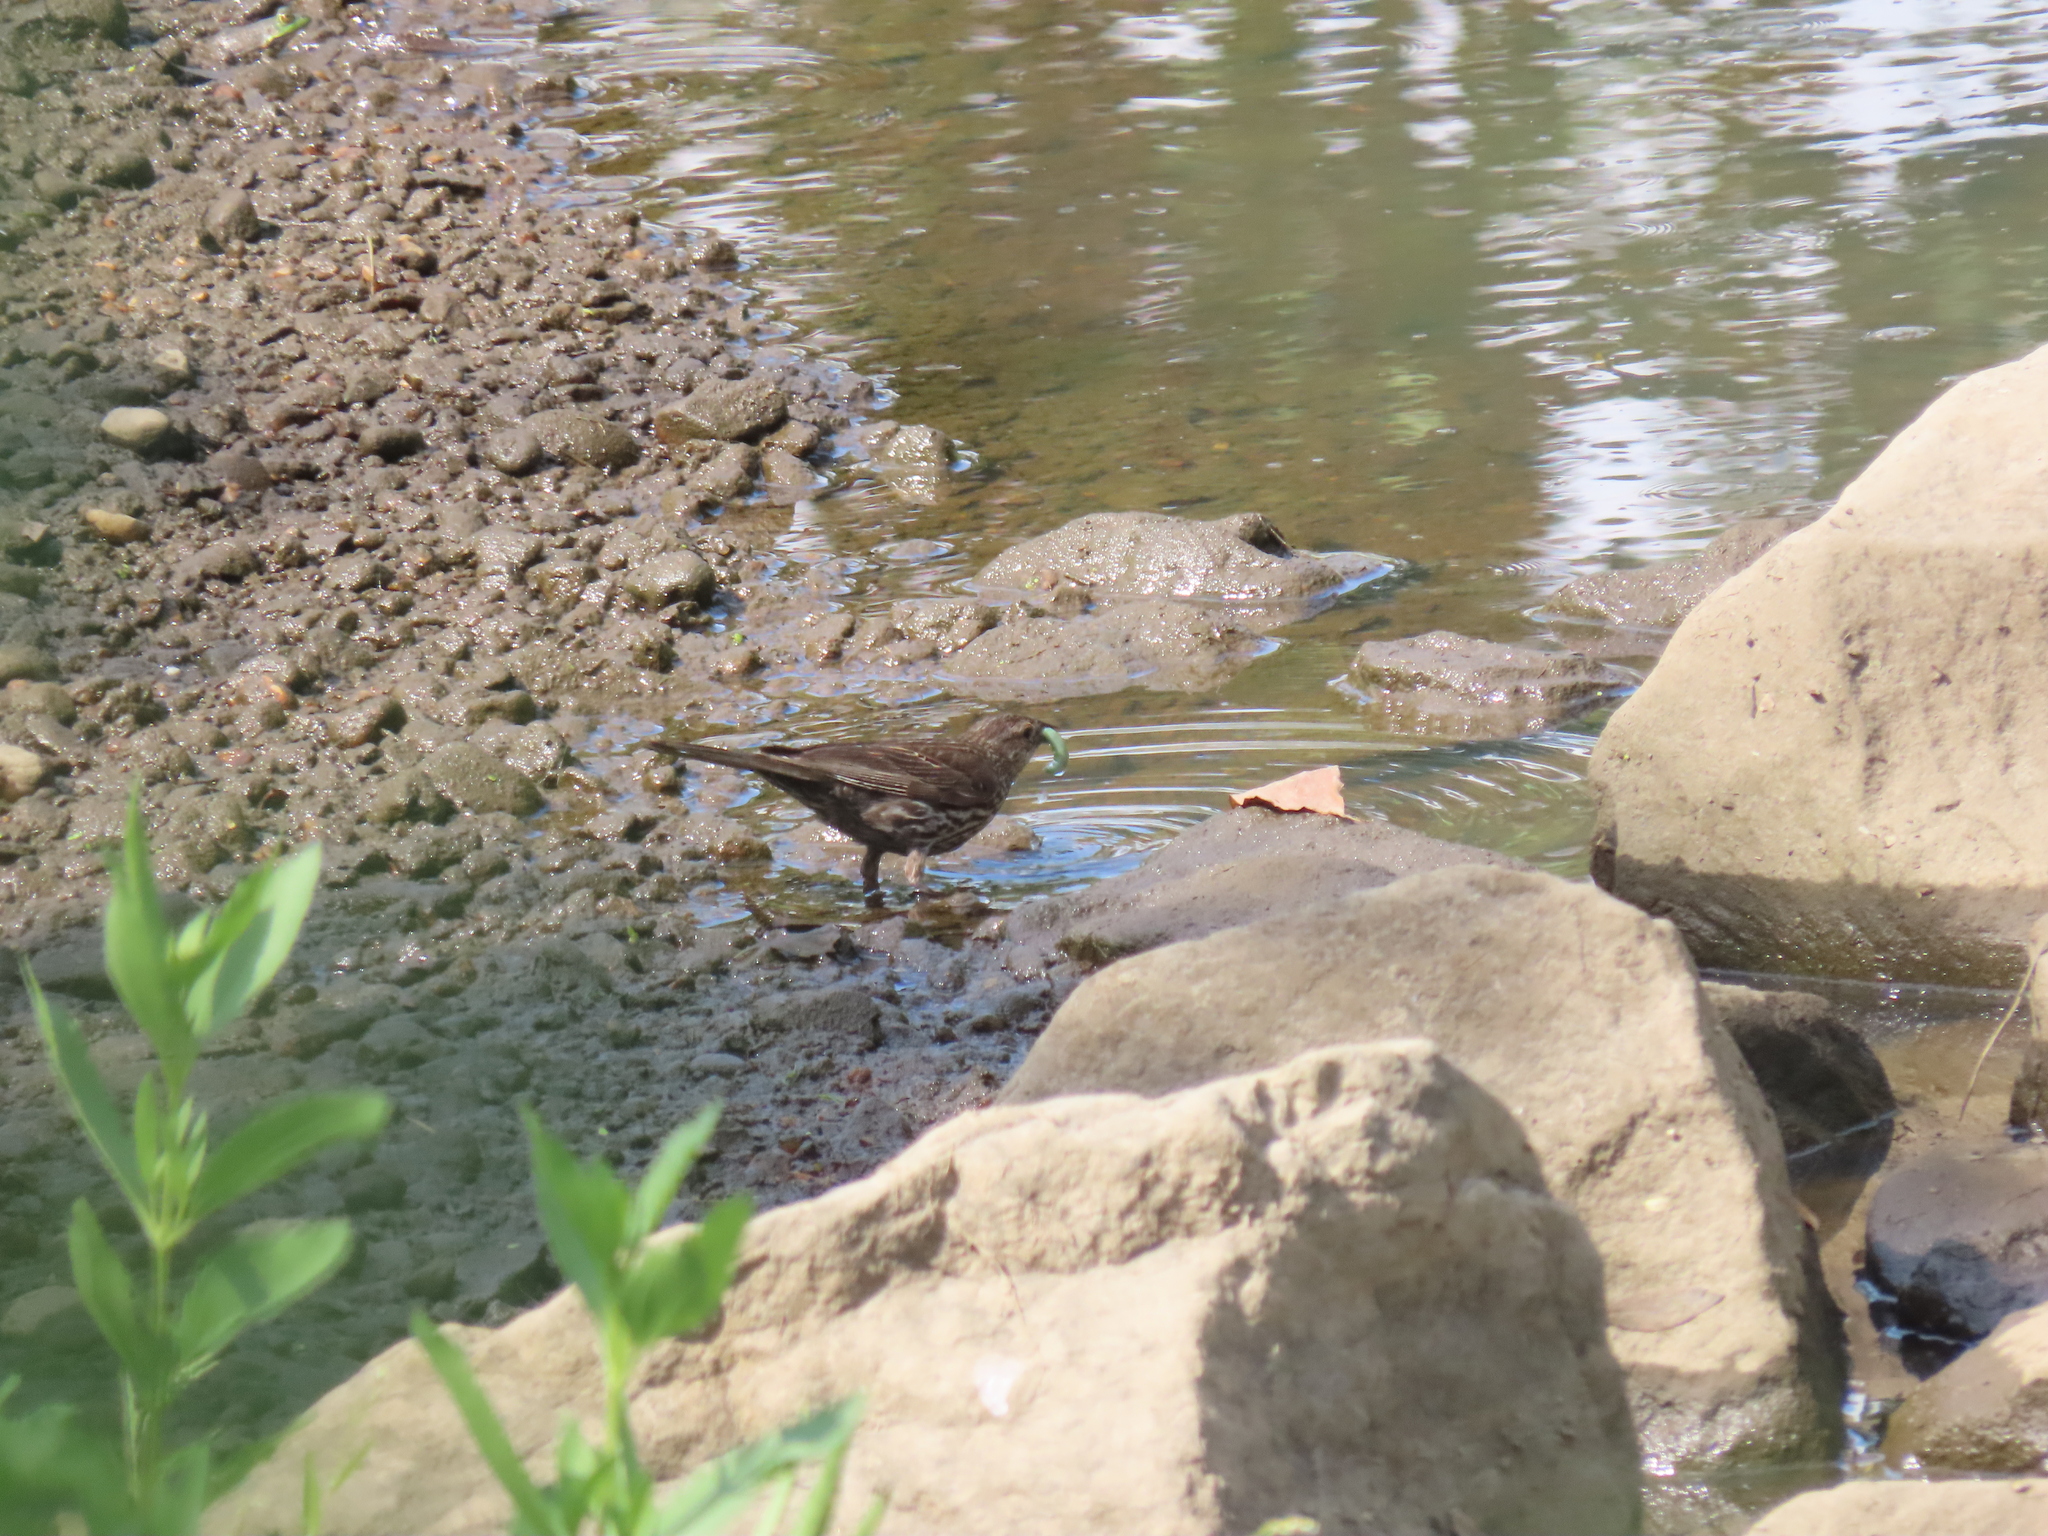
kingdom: Animalia
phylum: Chordata
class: Aves
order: Passeriformes
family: Icteridae
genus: Agelaius
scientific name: Agelaius phoeniceus
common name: Red-winged blackbird
